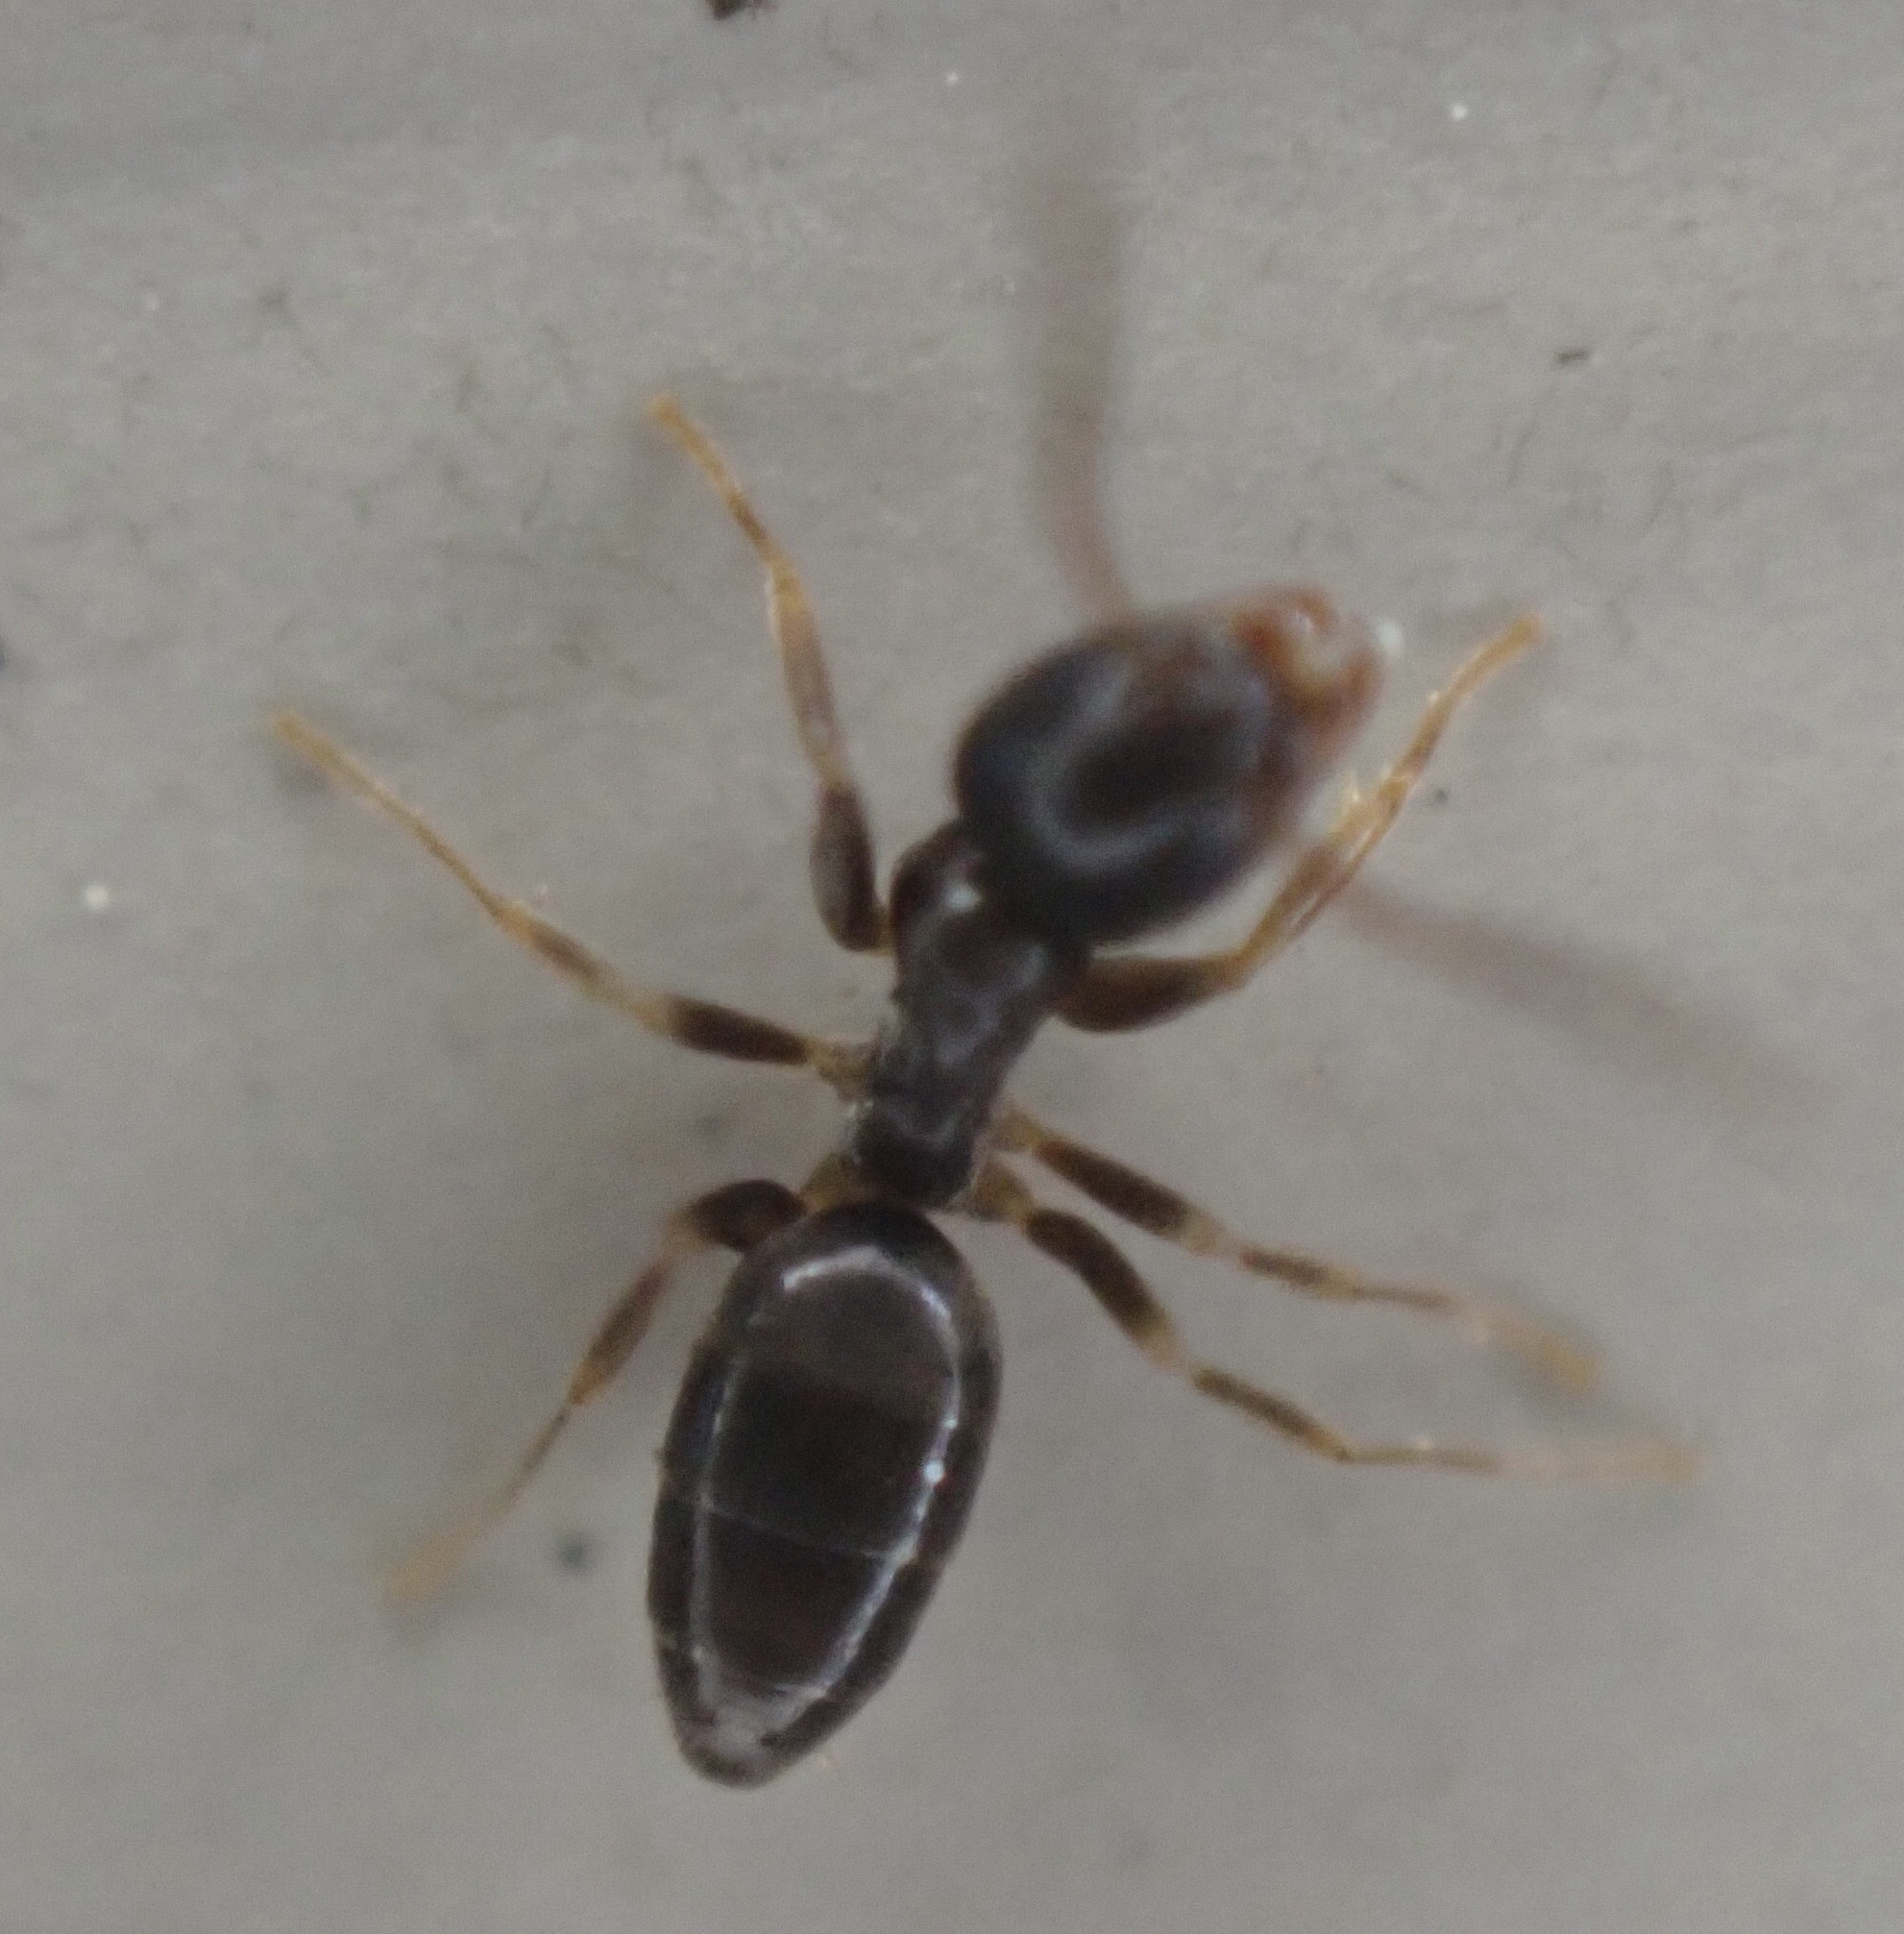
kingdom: Animalia
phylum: Arthropoda
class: Insecta
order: Hymenoptera
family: Formicidae
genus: Tapinoma
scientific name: Tapinoma sessile
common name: Odorous house ant
